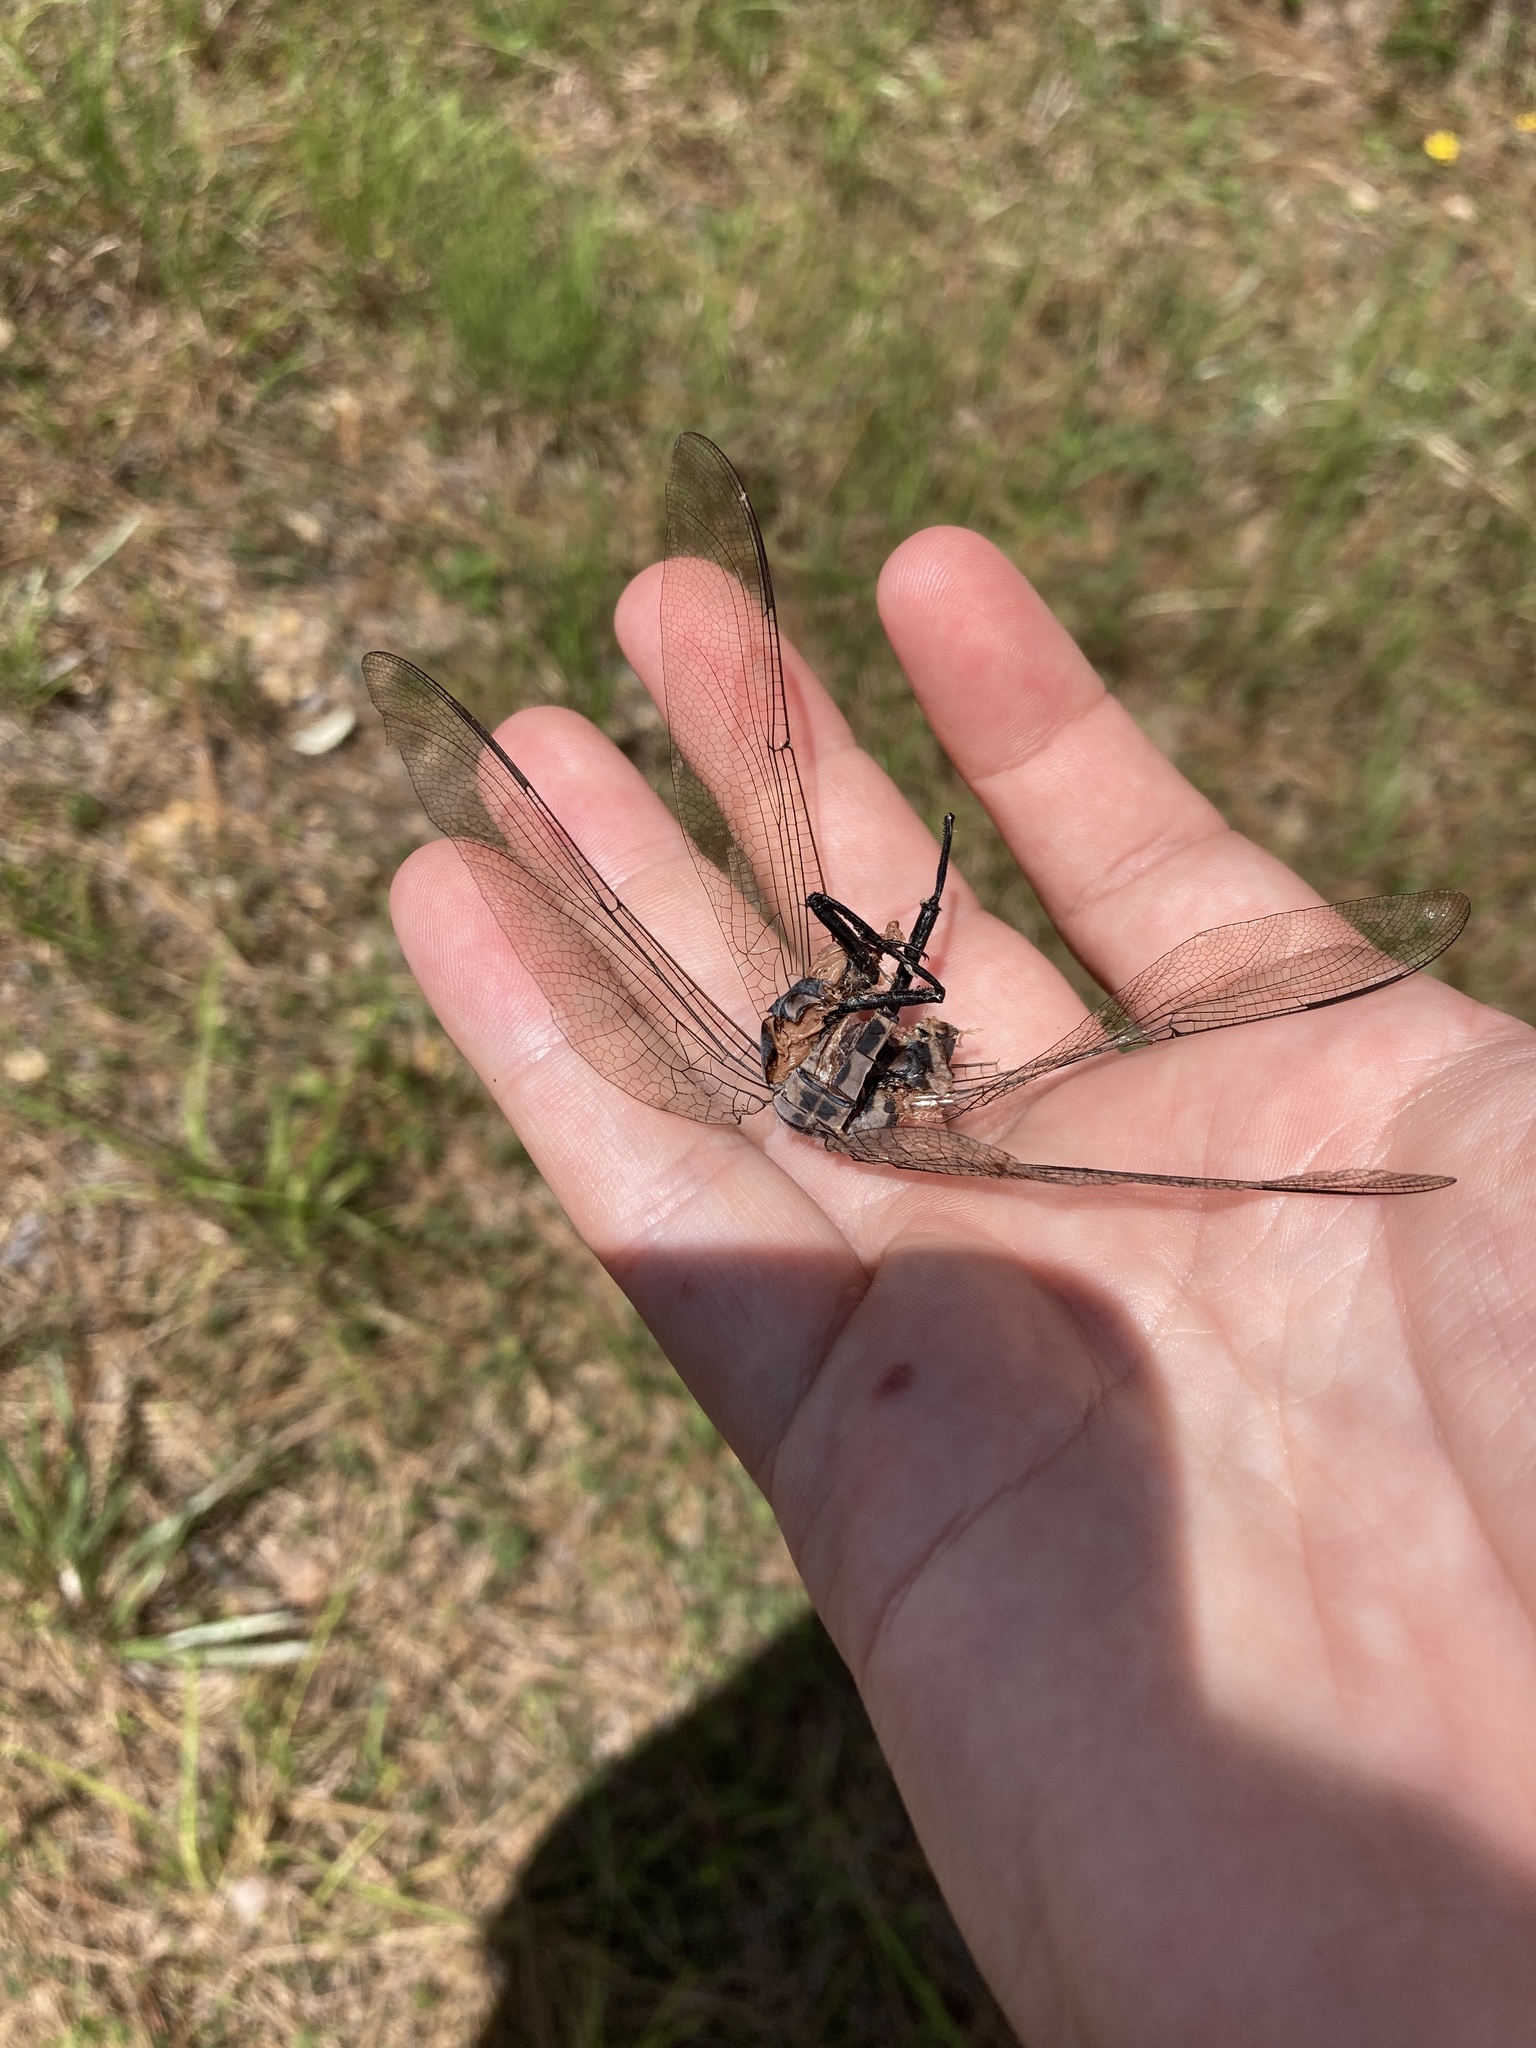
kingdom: Animalia
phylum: Arthropoda
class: Insecta
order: Odonata
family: Petaluridae
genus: Tachopteryx
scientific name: Tachopteryx thoreyi
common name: Gray petaltail
